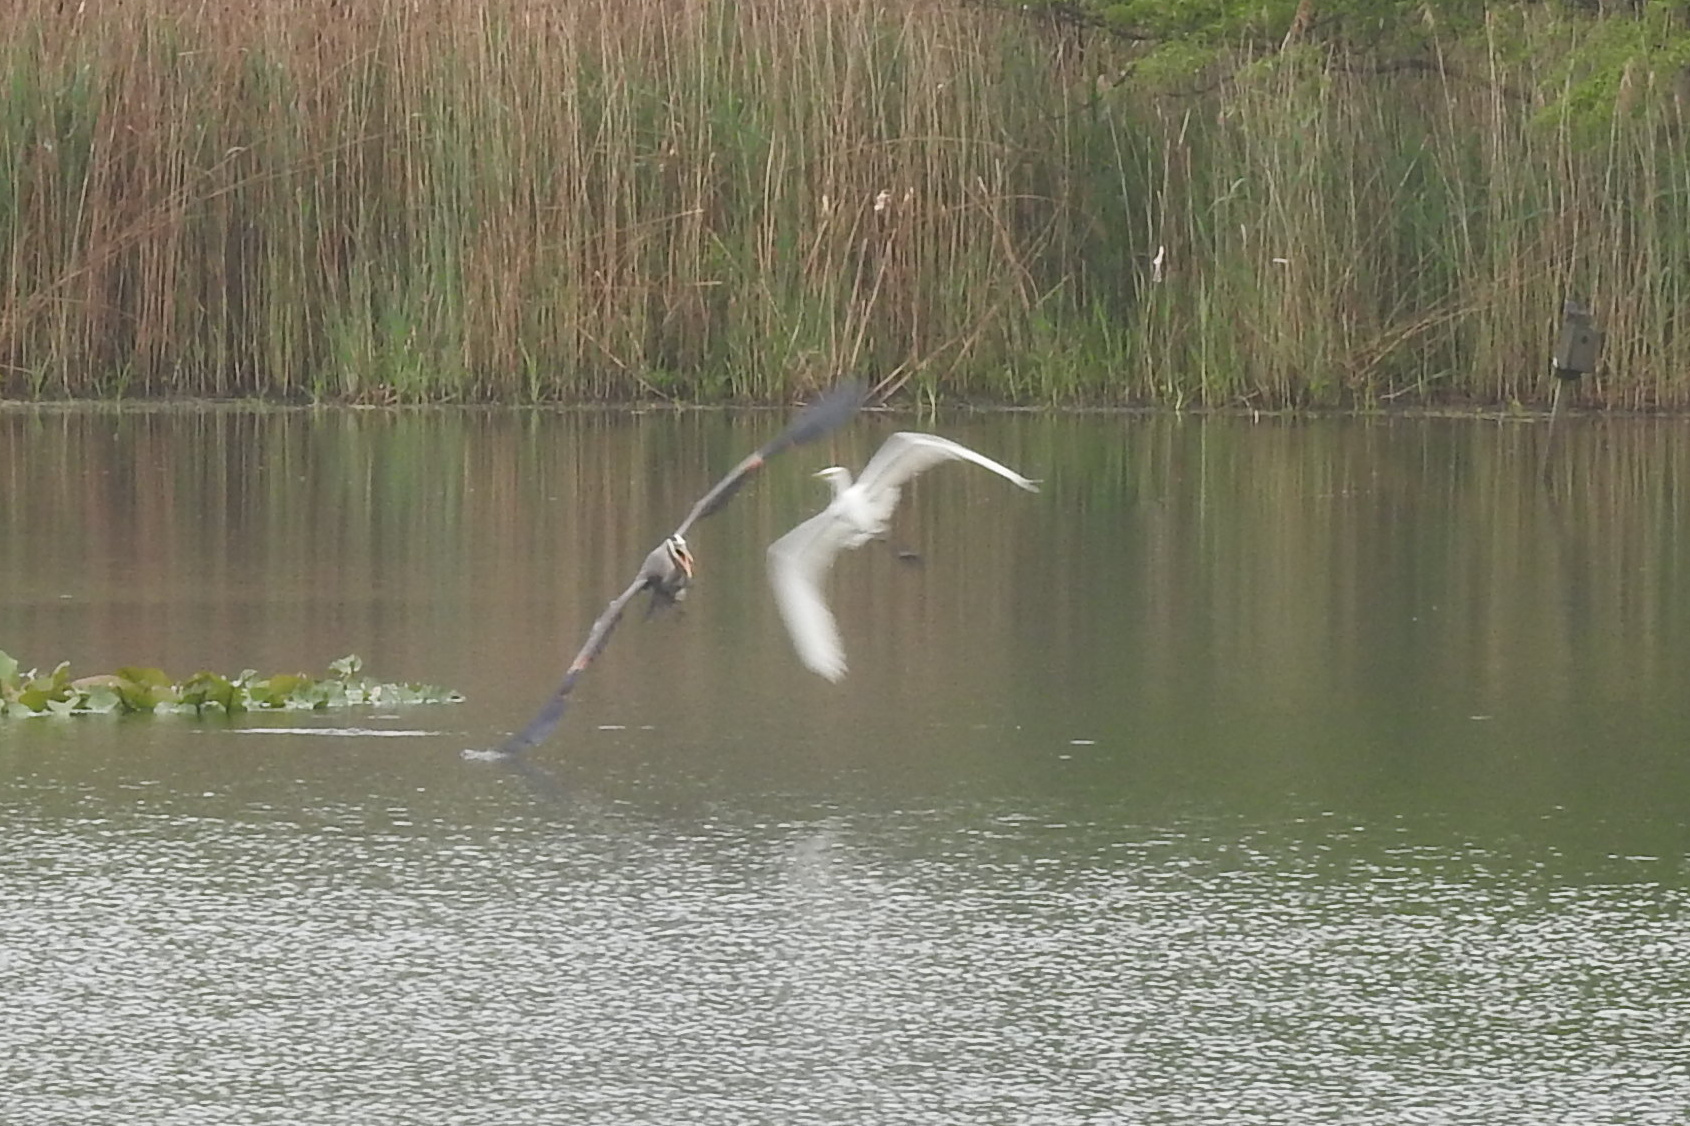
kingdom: Animalia
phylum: Chordata
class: Aves
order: Pelecaniformes
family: Ardeidae
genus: Ardea
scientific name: Ardea herodias
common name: Great blue heron
